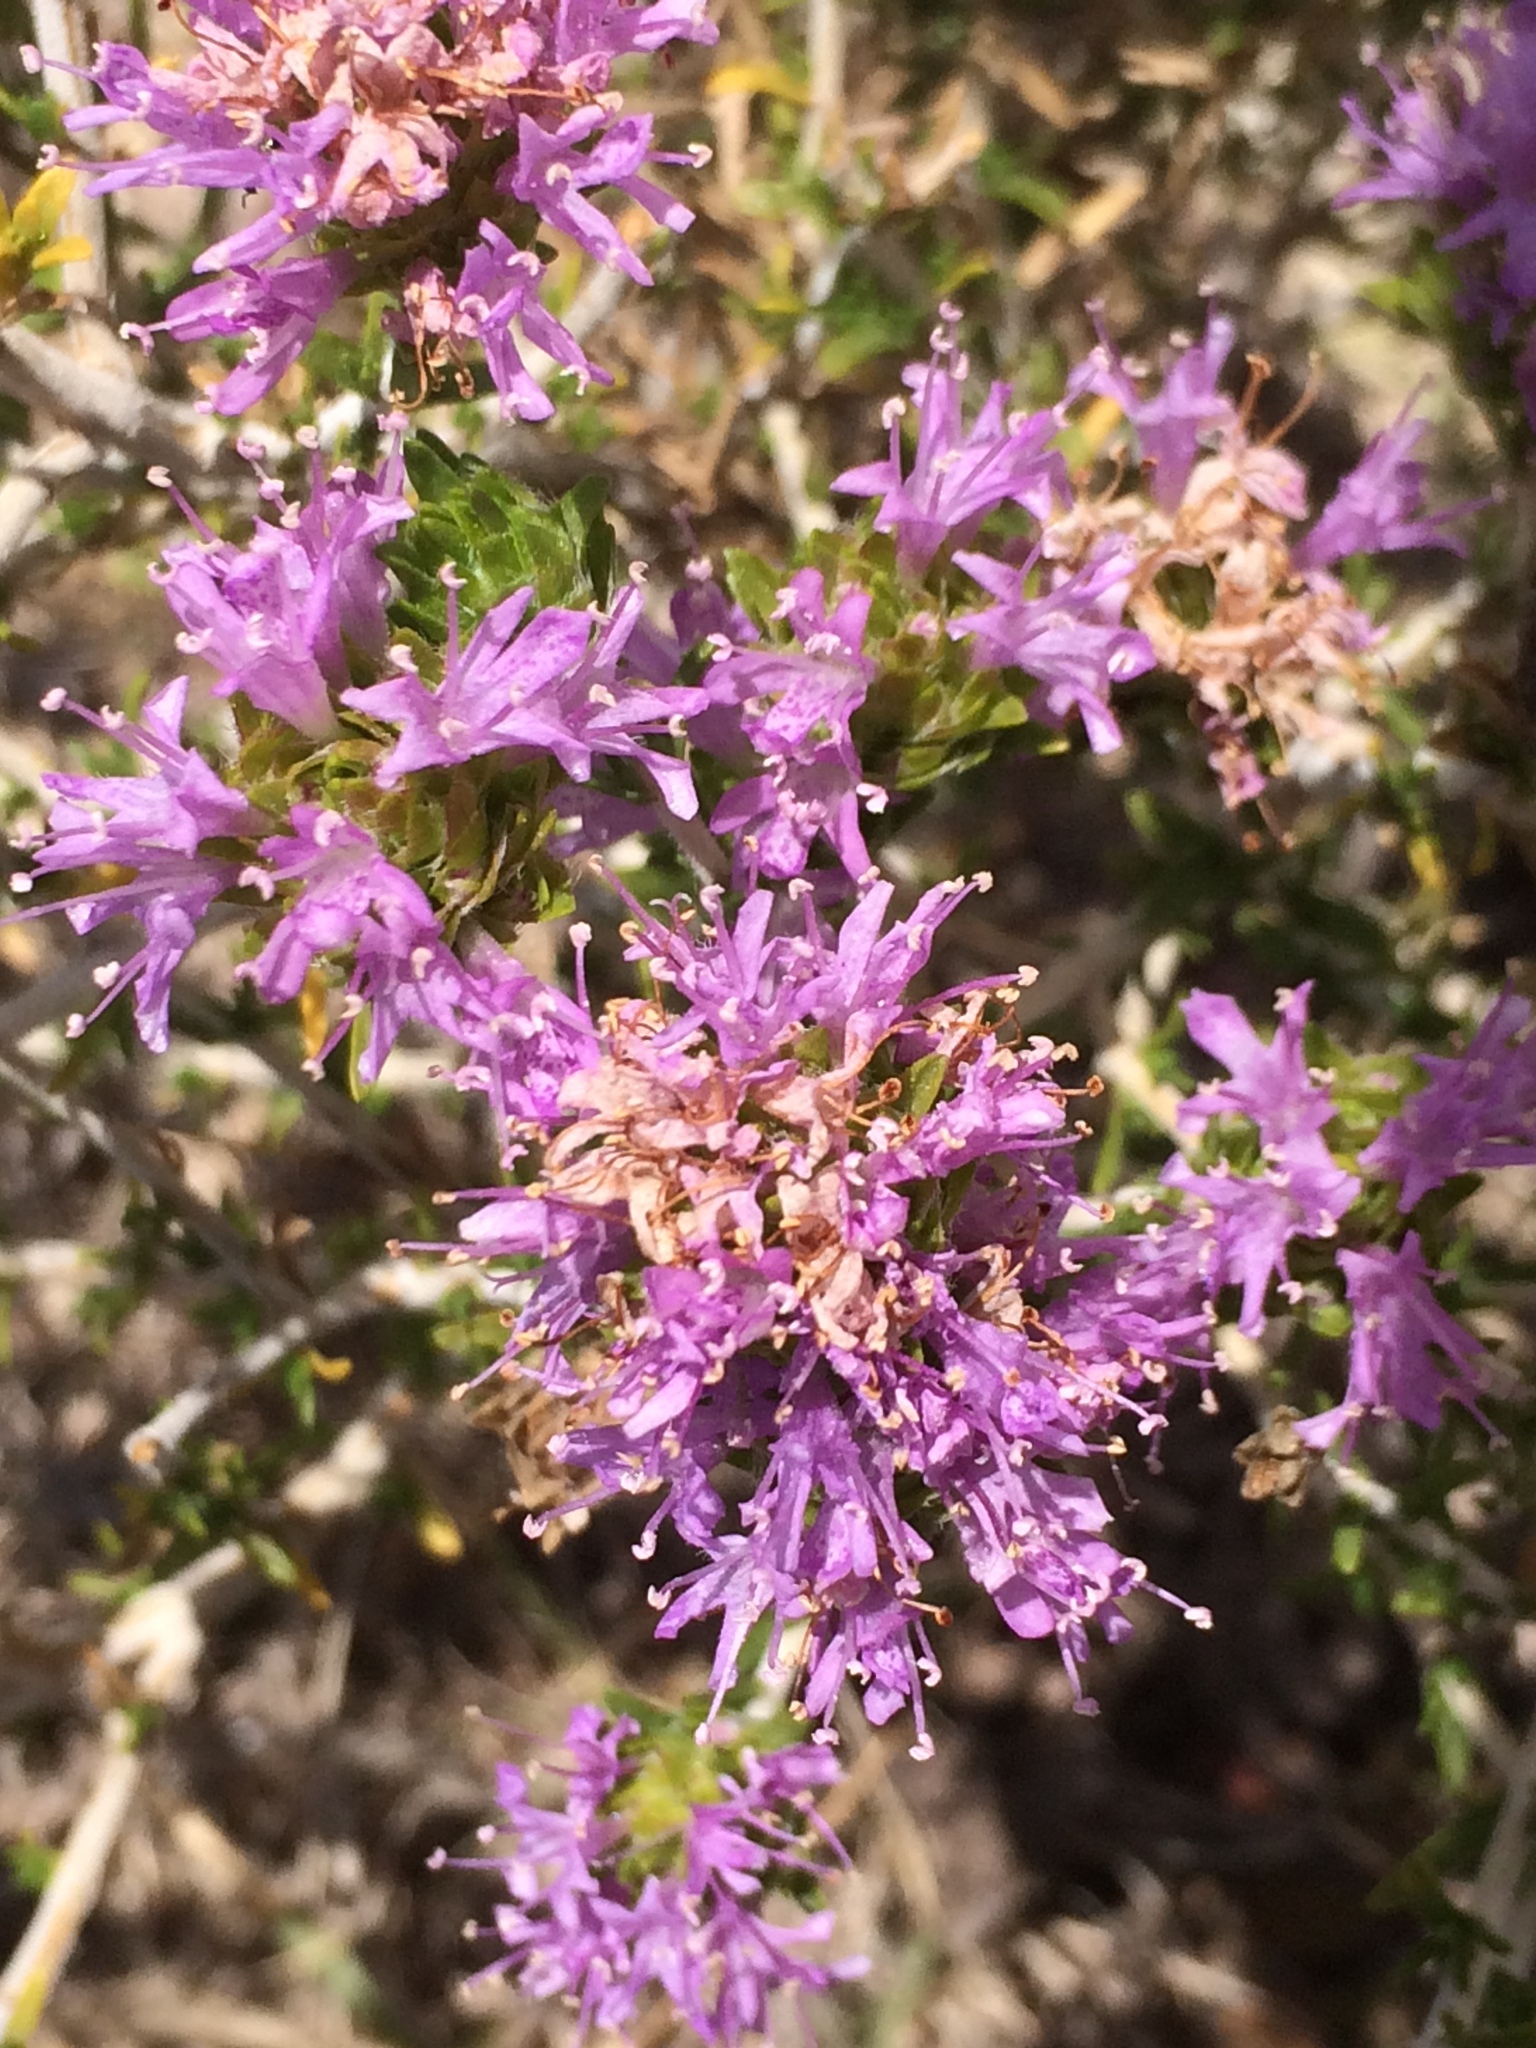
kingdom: Plantae
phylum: Tracheophyta
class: Magnoliopsida
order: Lamiales
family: Lamiaceae
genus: Thymbra
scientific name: Thymbra capitata
